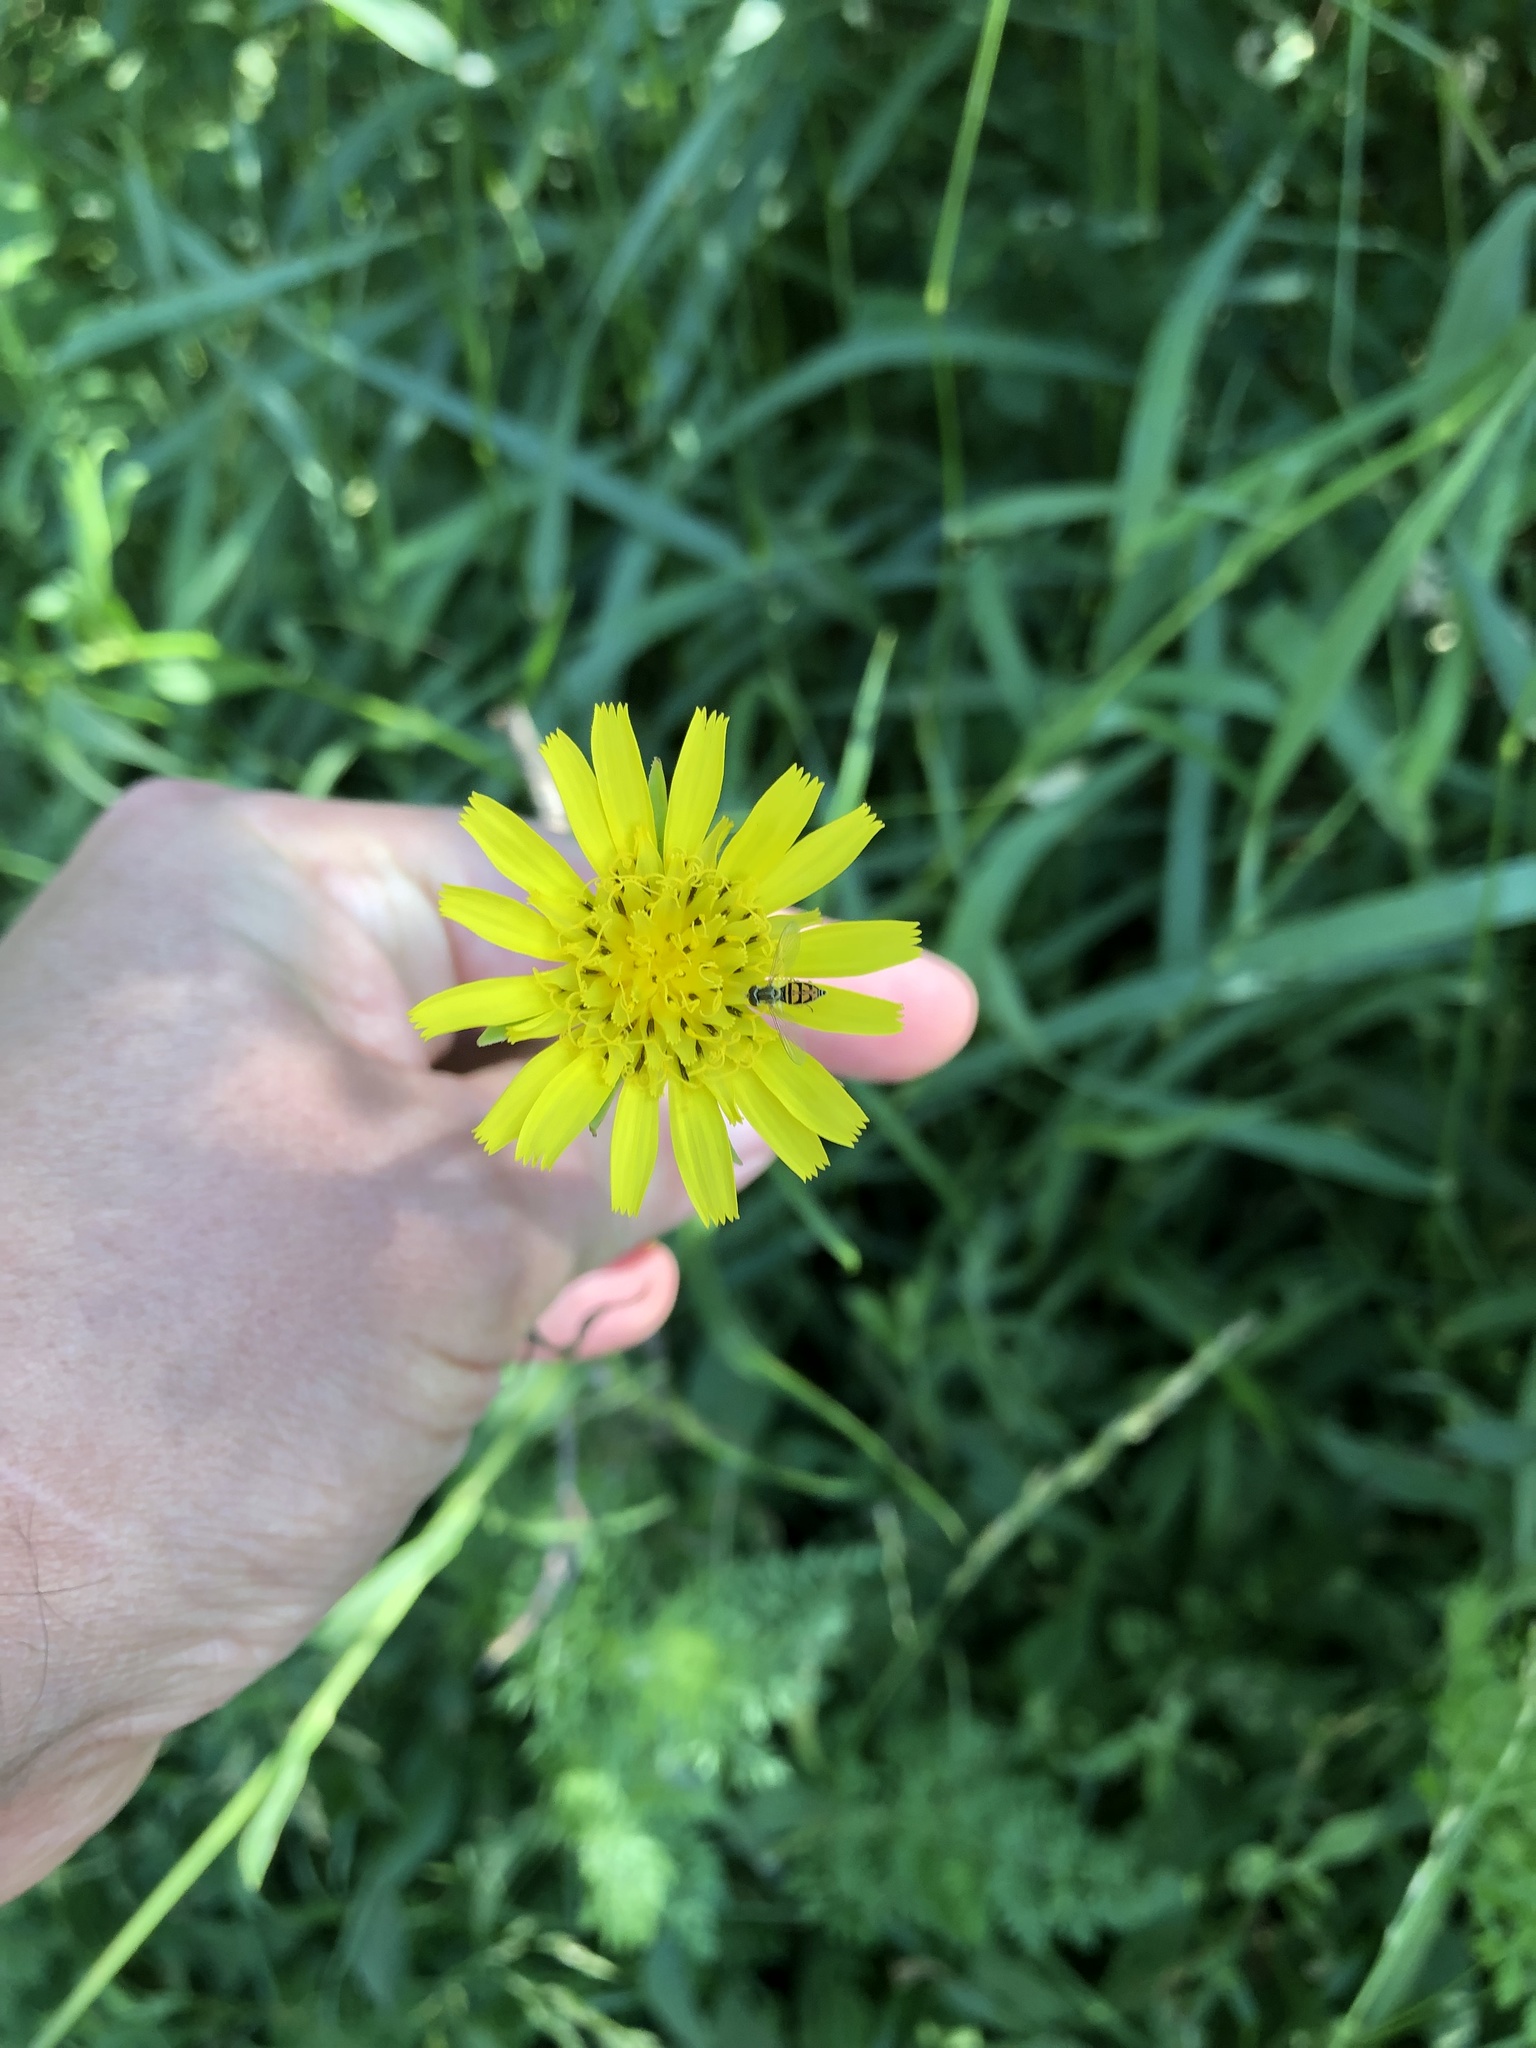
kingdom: Plantae
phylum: Tracheophyta
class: Magnoliopsida
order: Asterales
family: Asteraceae
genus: Tragopogon
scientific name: Tragopogon pratensis
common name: Goat's-beard
